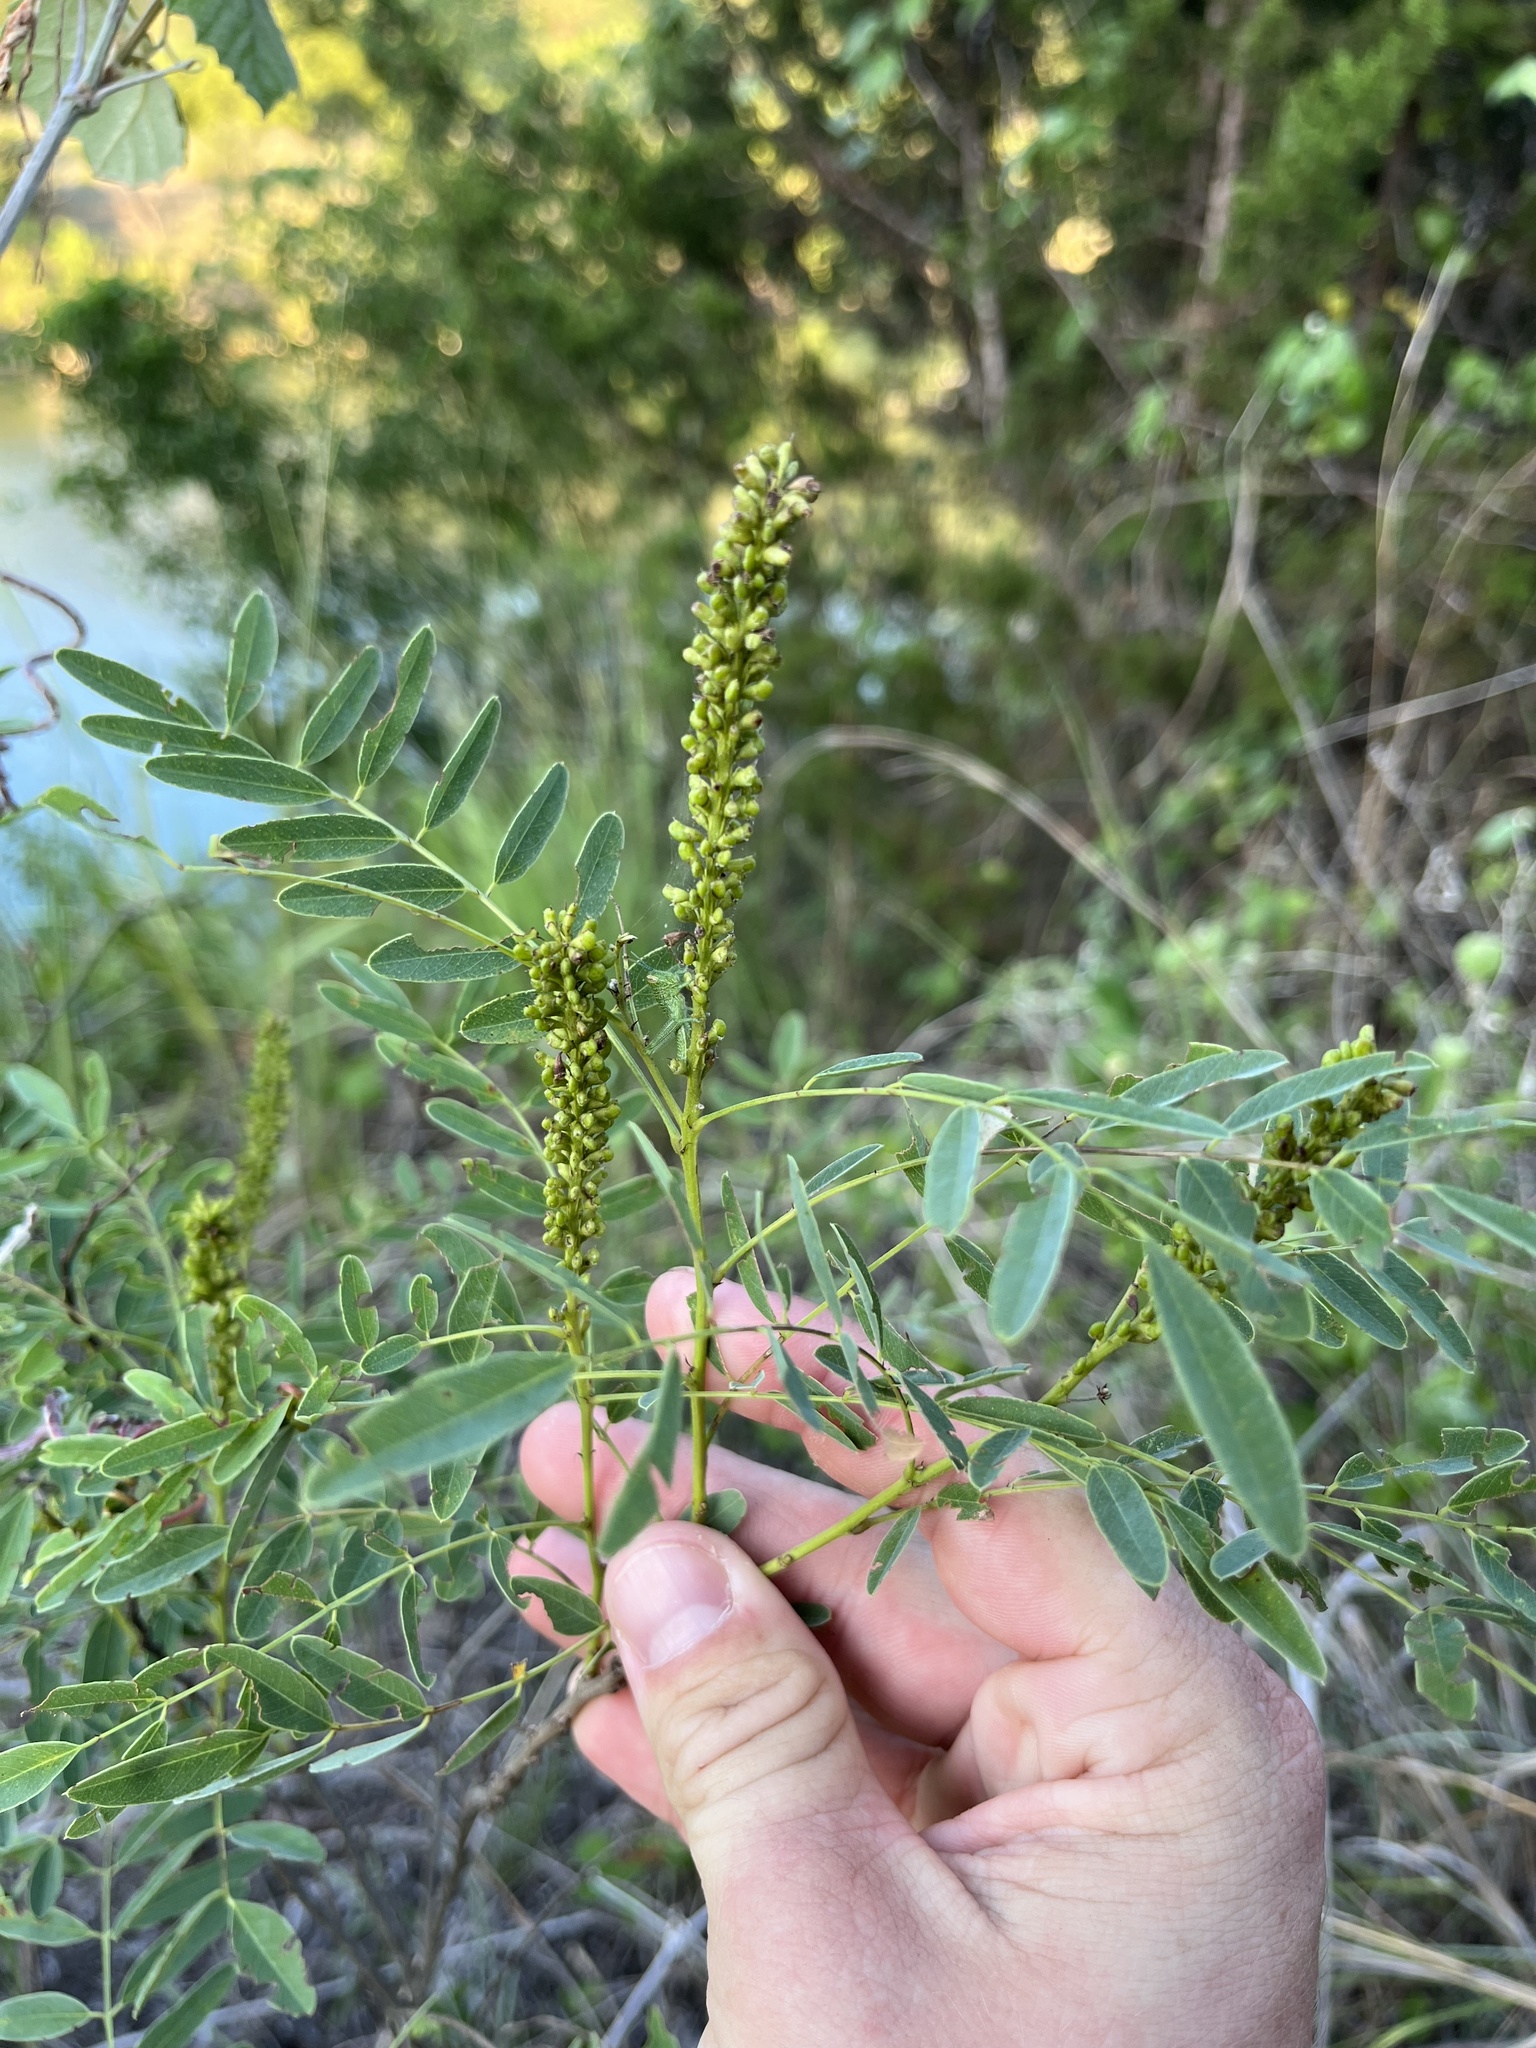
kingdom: Plantae
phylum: Tracheophyta
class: Magnoliopsida
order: Fabales
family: Fabaceae
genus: Amorpha
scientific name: Amorpha fruticosa
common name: False indigo
